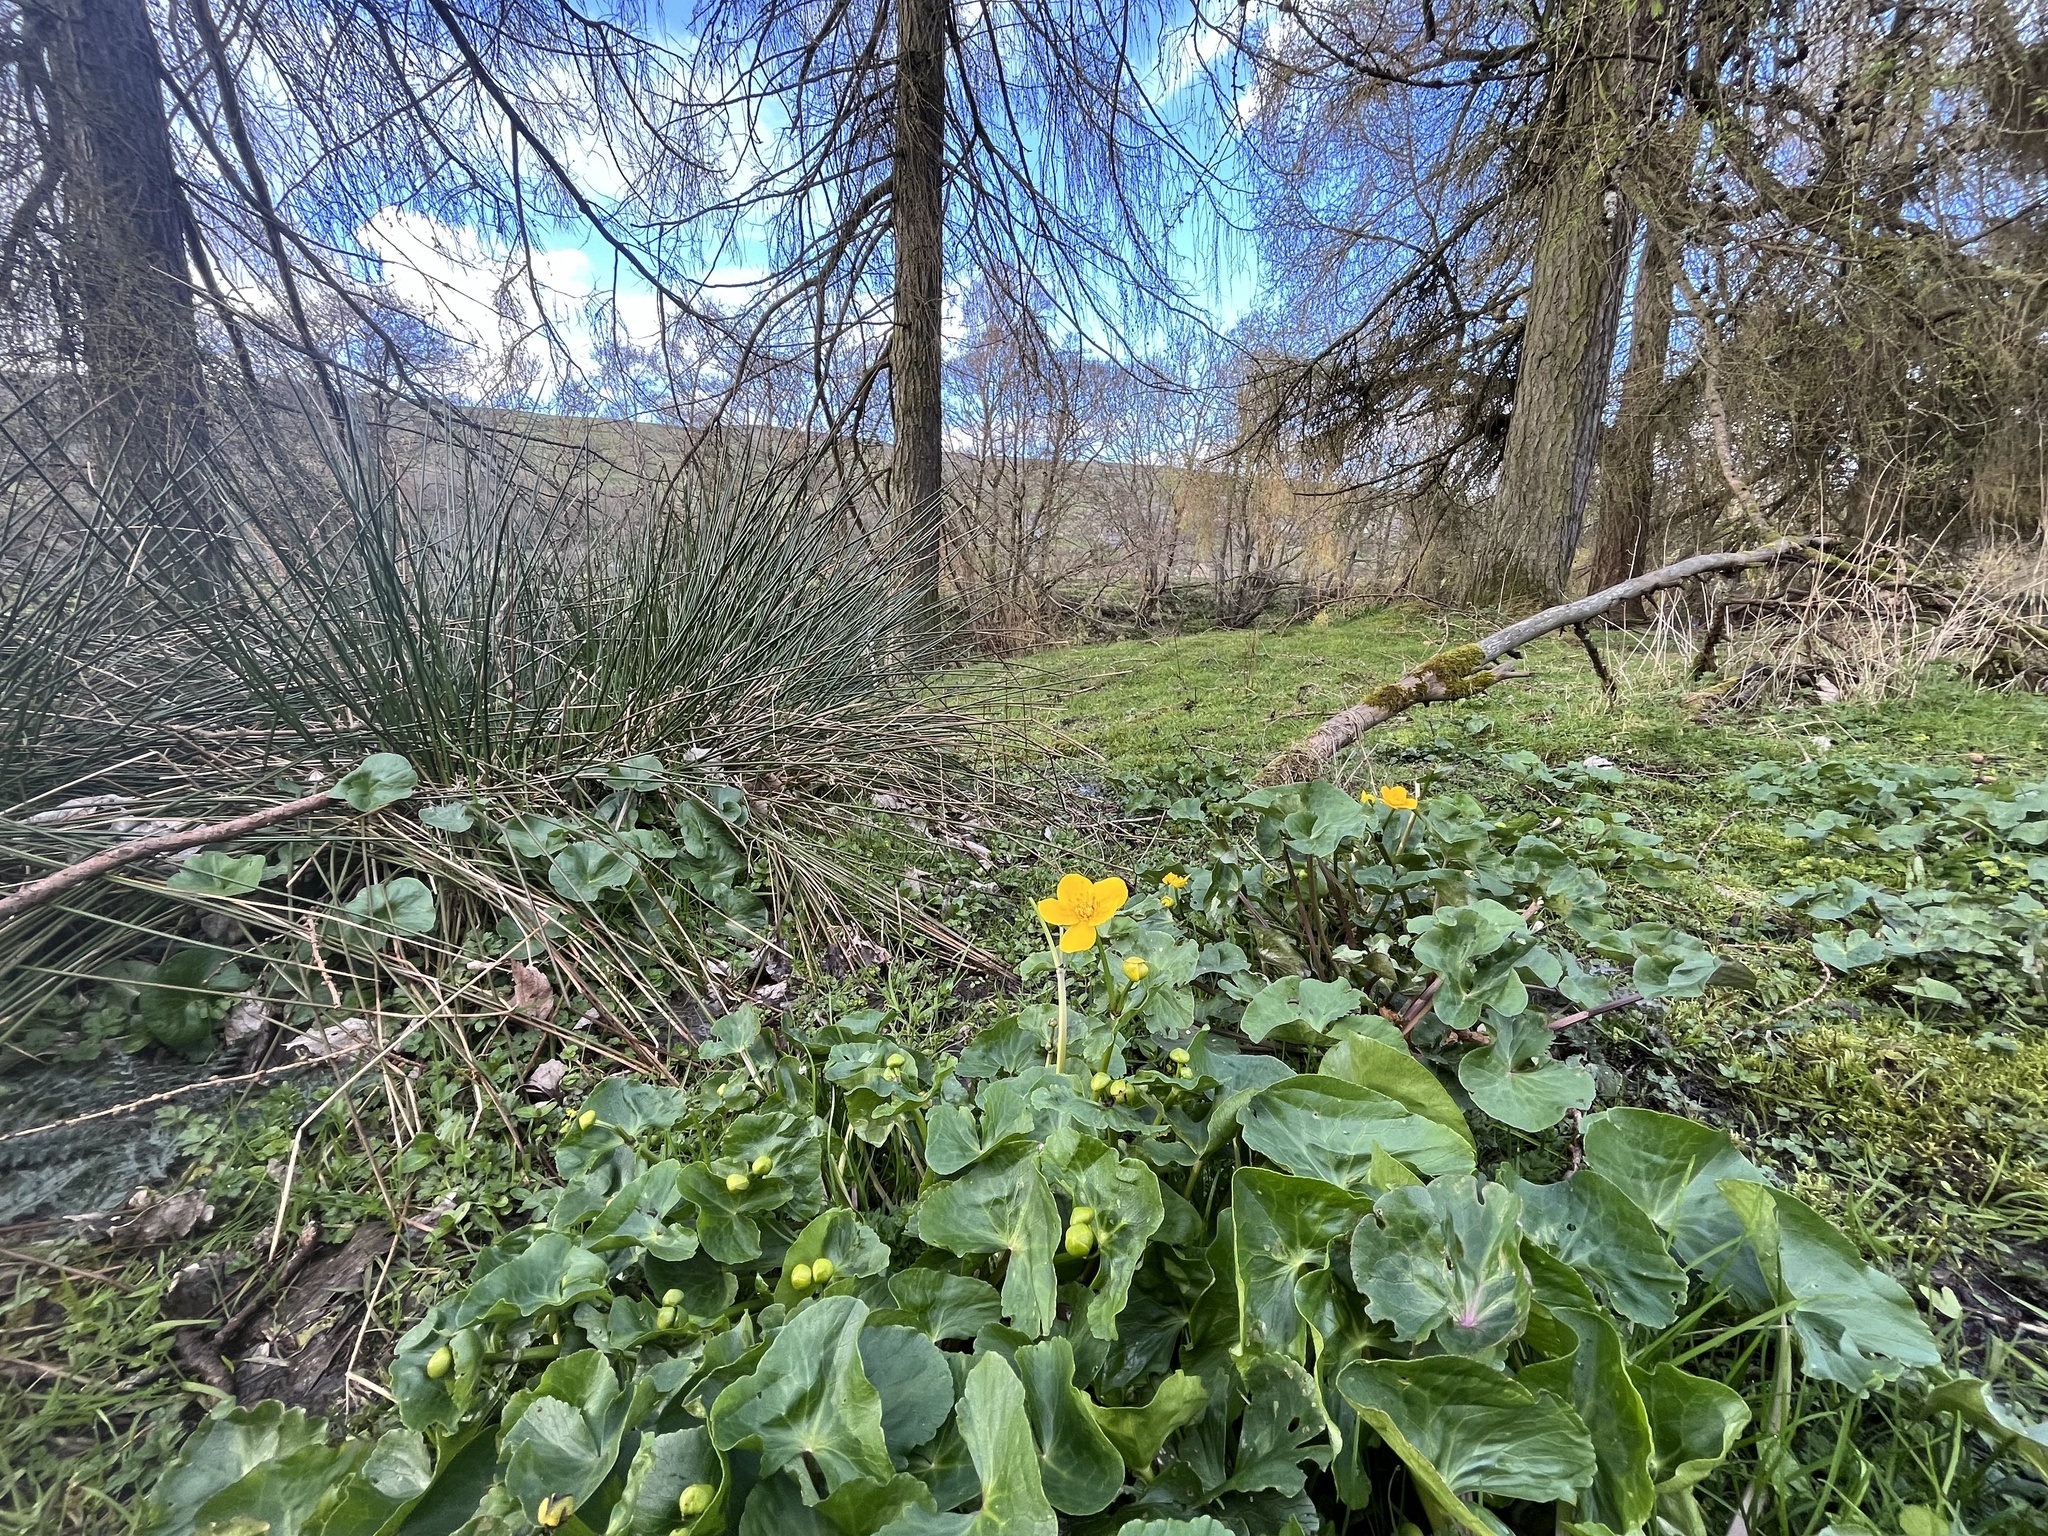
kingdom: Plantae
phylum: Tracheophyta
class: Magnoliopsida
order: Ranunculales
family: Ranunculaceae
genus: Caltha
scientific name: Caltha palustris
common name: Marsh marigold
